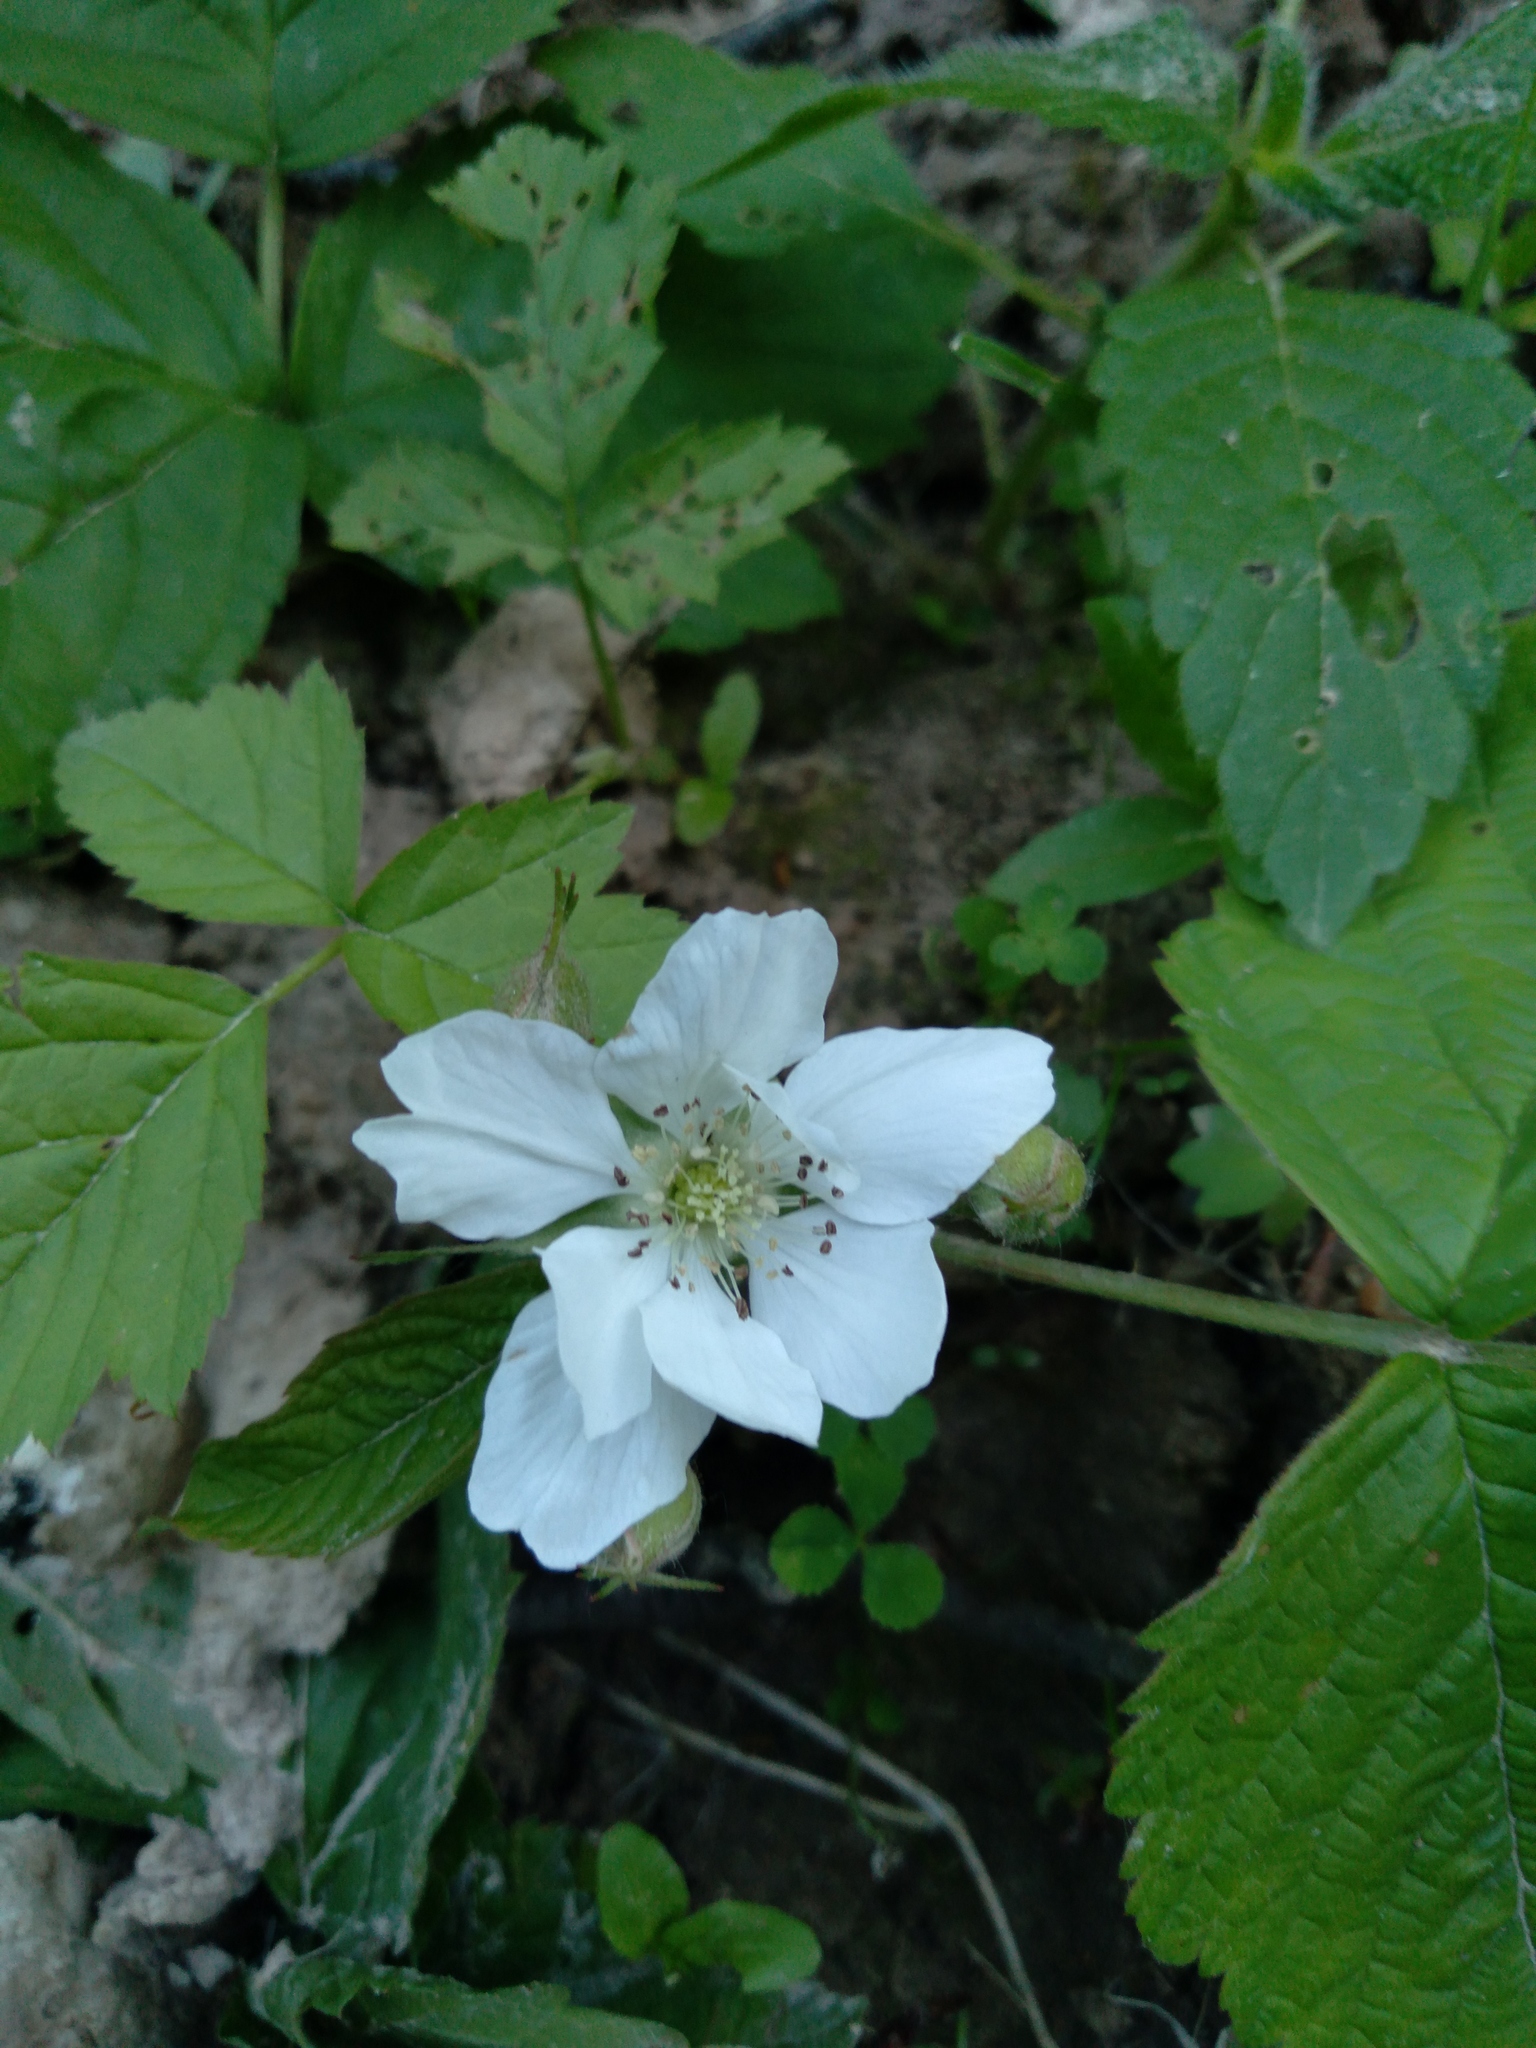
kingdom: Plantae
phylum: Tracheophyta
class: Magnoliopsida
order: Rosales
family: Rosaceae
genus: Rubus
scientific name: Rubus caesius
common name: Dewberry
